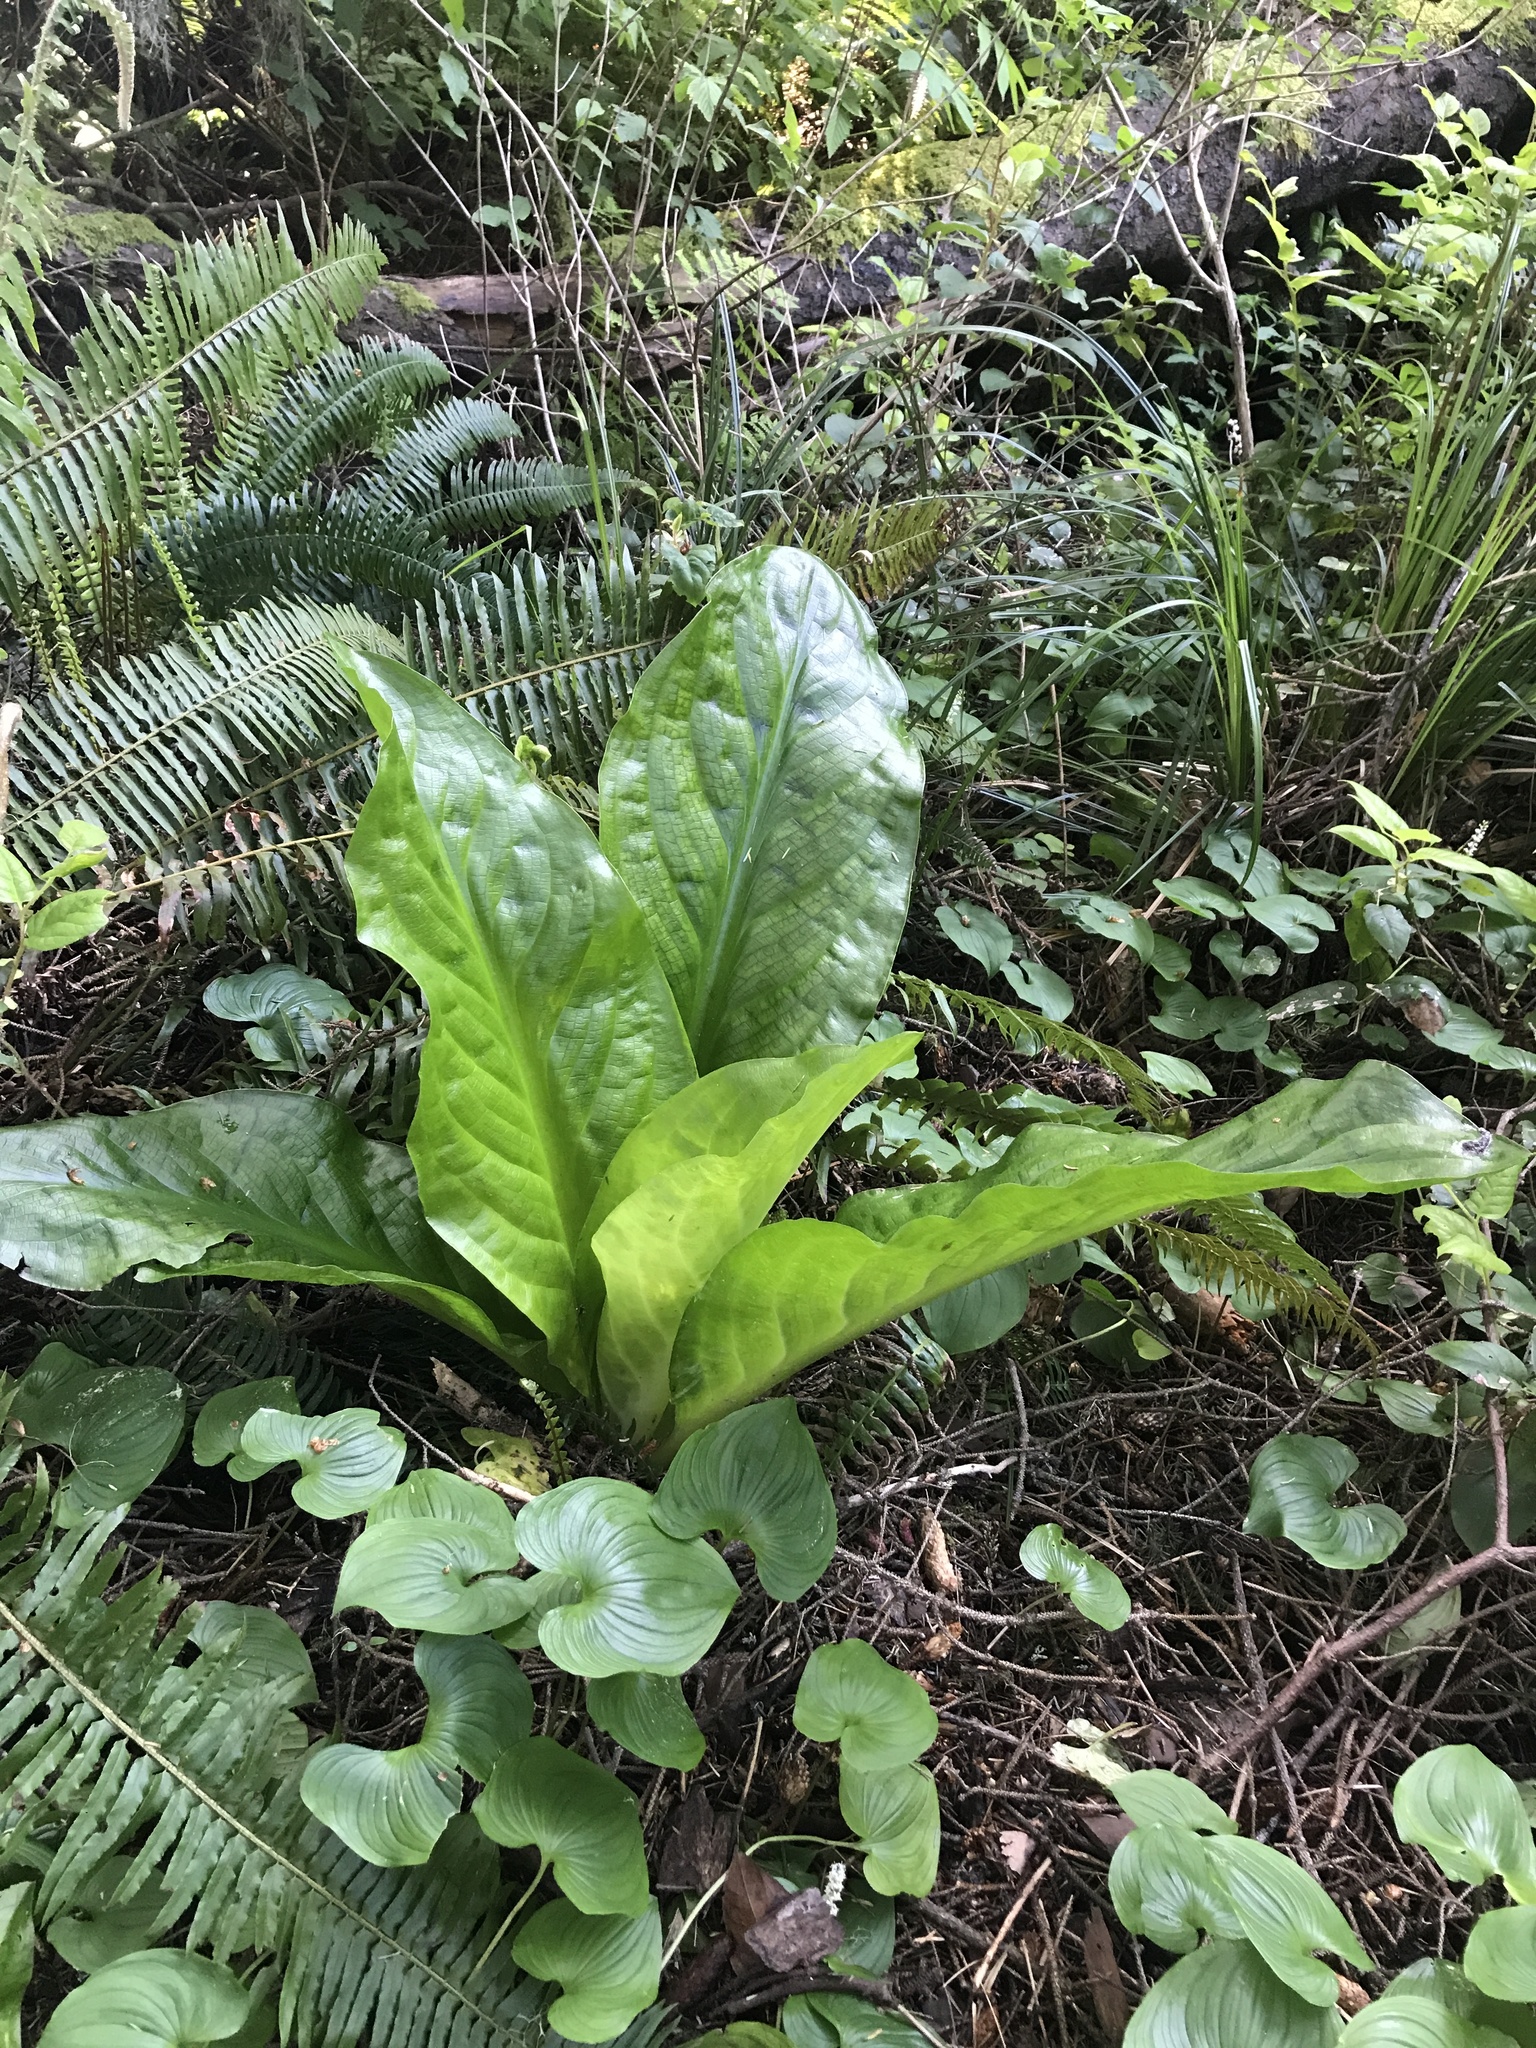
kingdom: Plantae
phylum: Tracheophyta
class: Liliopsida
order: Alismatales
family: Araceae
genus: Lysichiton
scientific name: Lysichiton americanus
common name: American skunk cabbage
